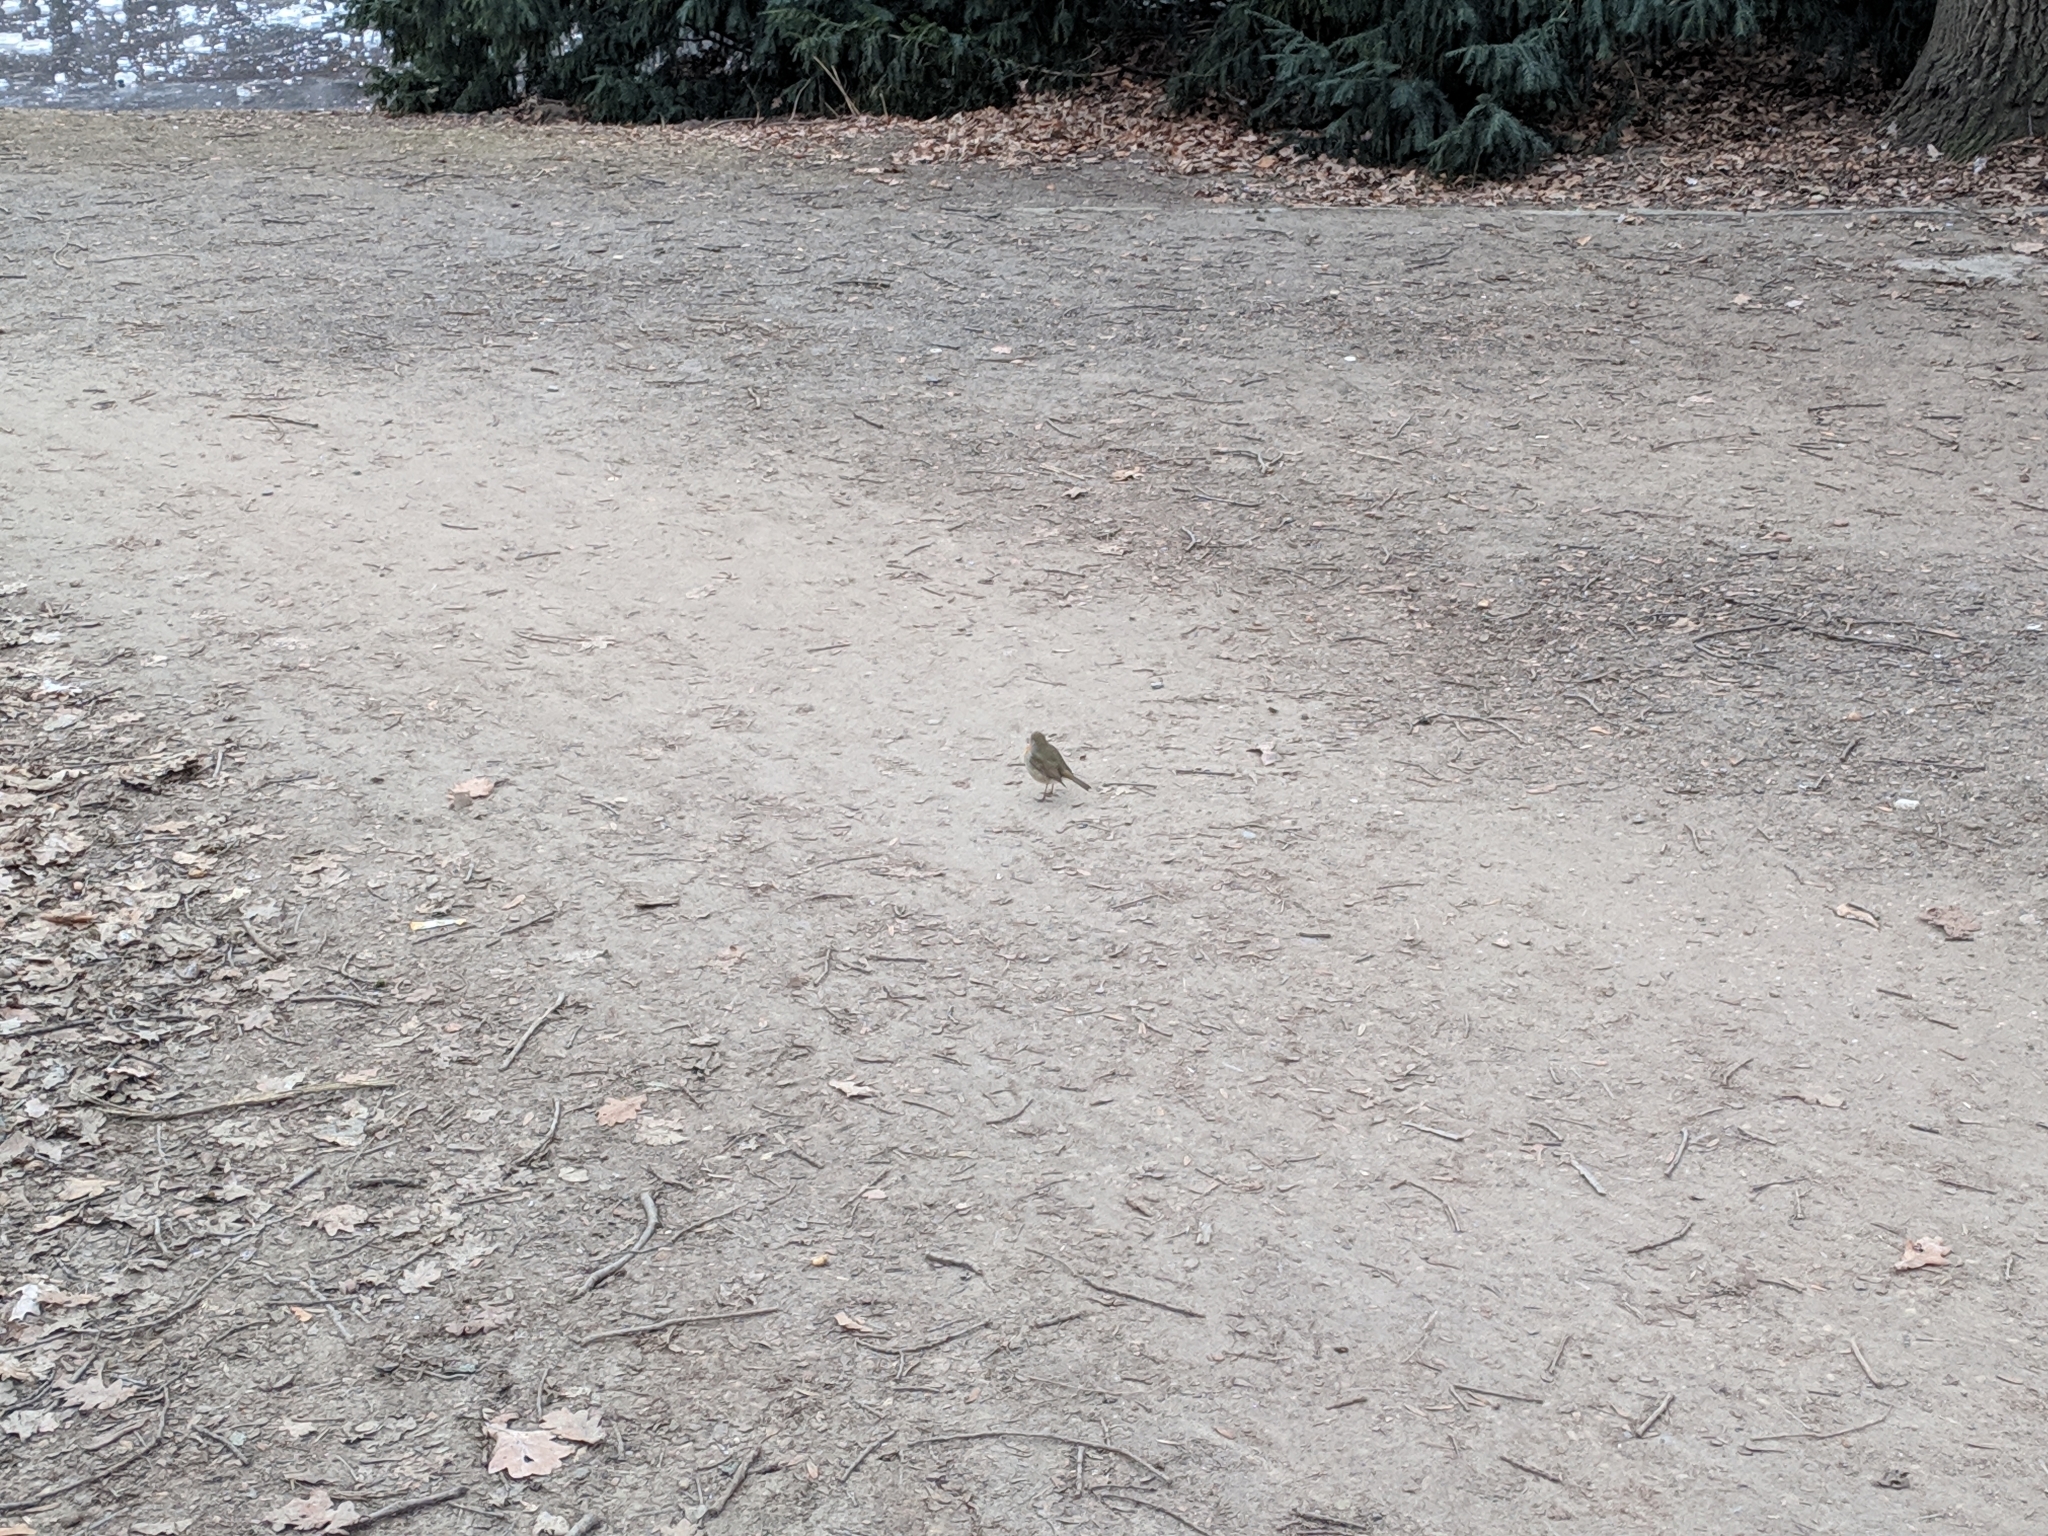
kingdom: Animalia
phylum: Chordata
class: Aves
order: Passeriformes
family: Muscicapidae
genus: Erithacus
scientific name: Erithacus rubecula
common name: European robin
